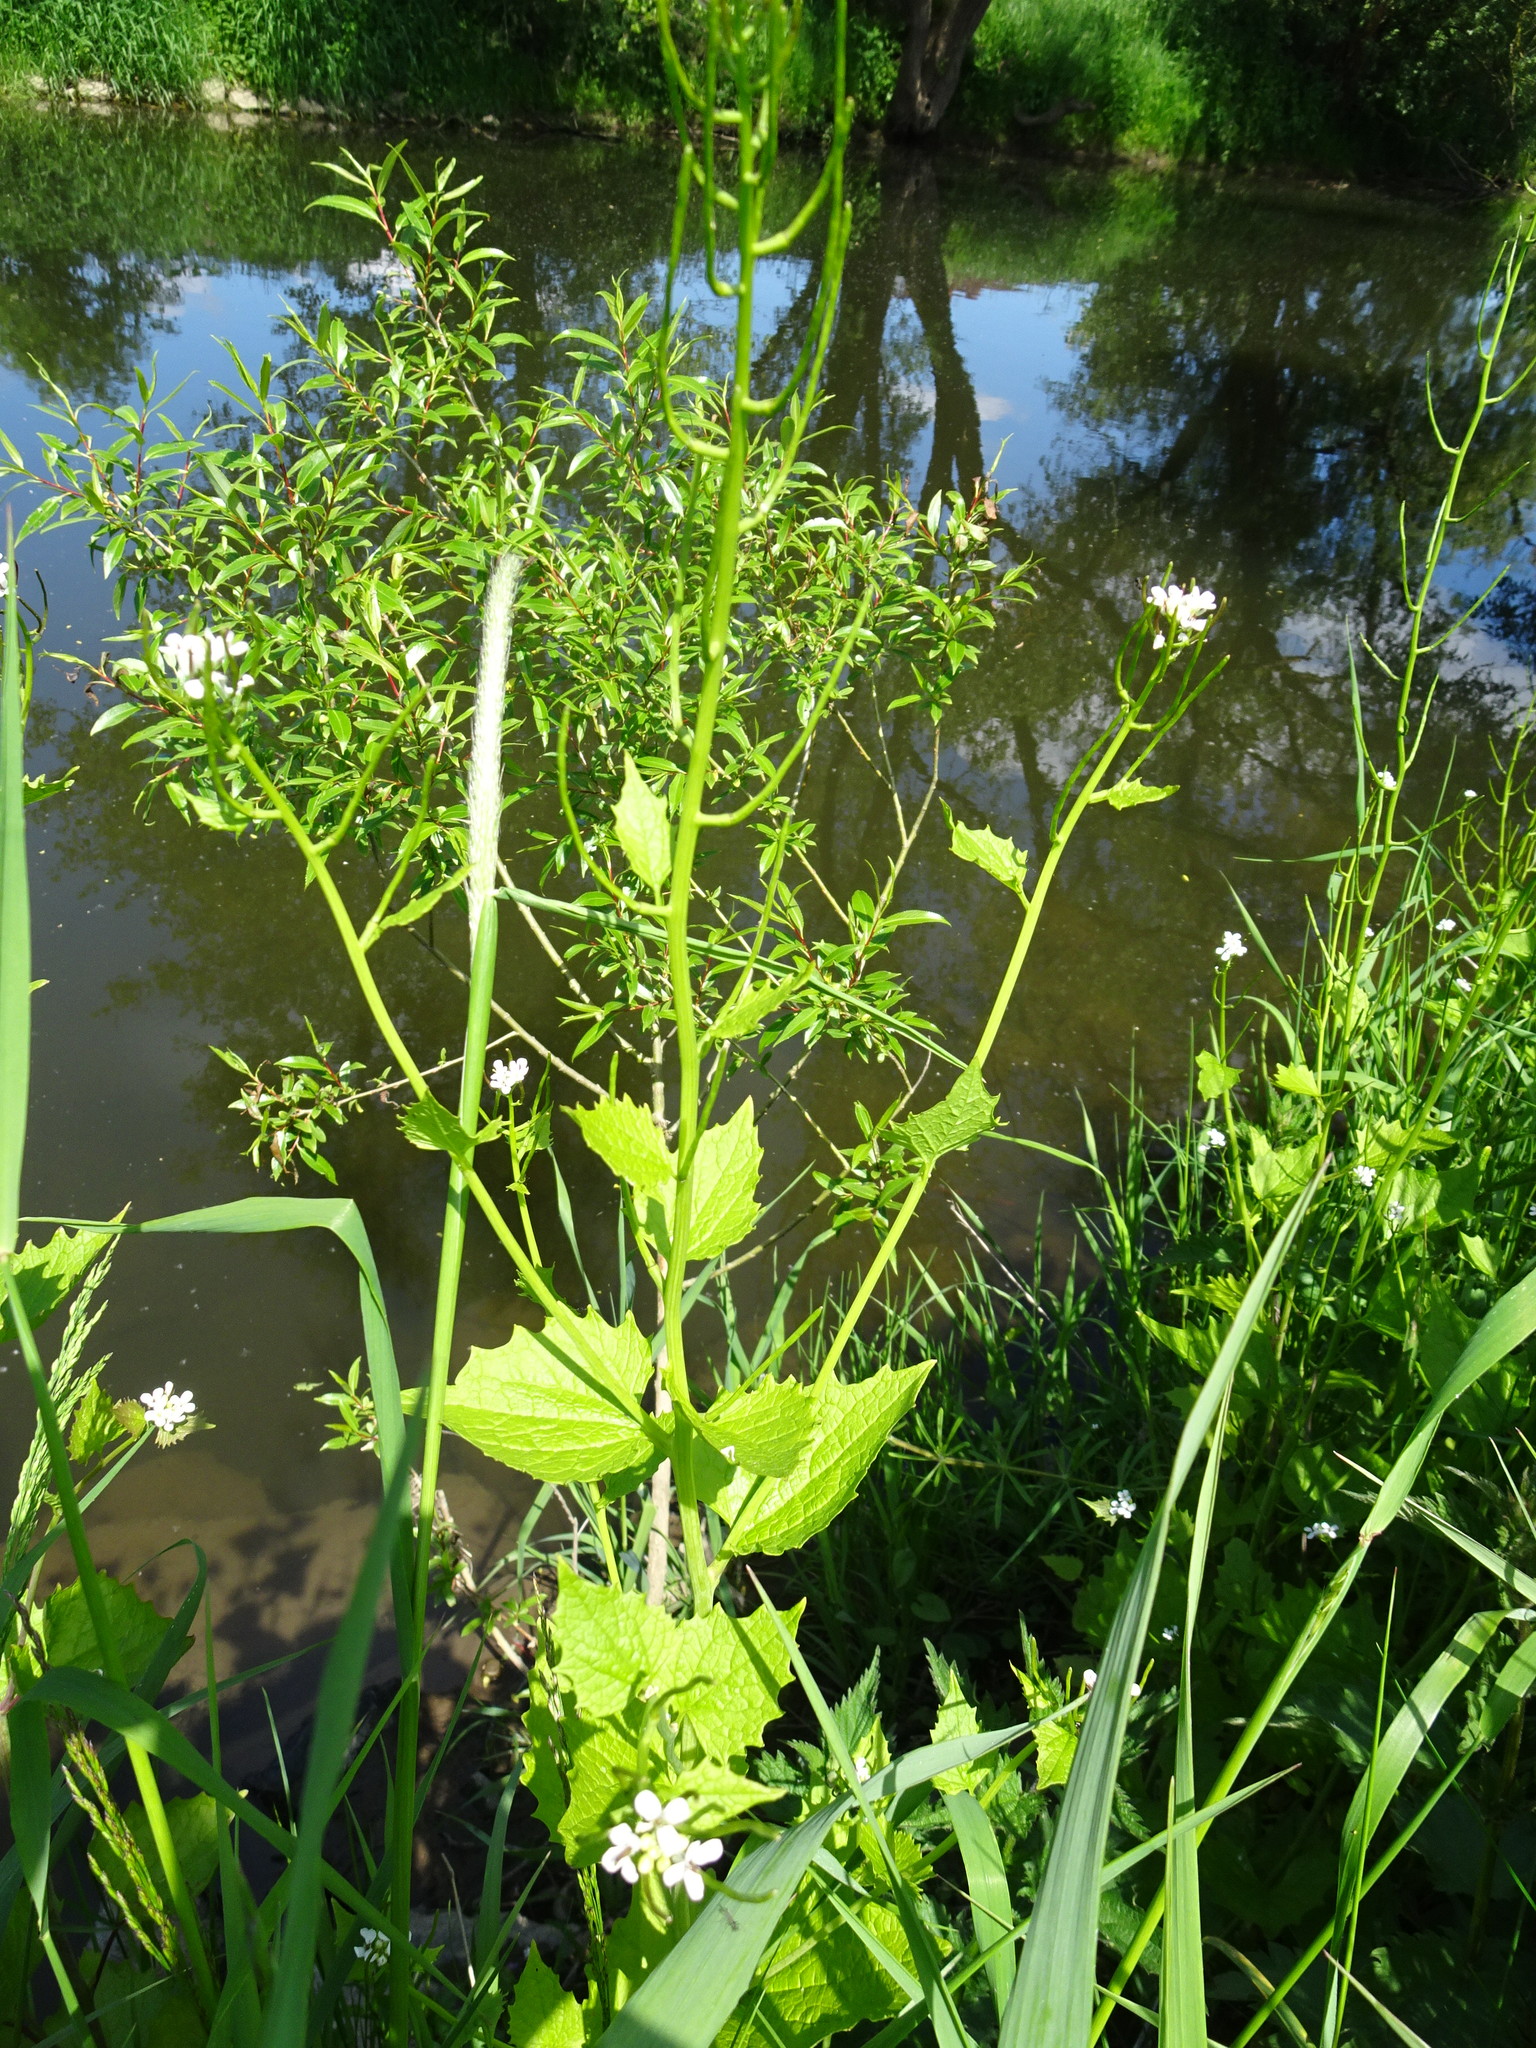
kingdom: Plantae
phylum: Tracheophyta
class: Magnoliopsida
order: Brassicales
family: Brassicaceae
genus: Alliaria
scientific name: Alliaria petiolata
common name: Garlic mustard
